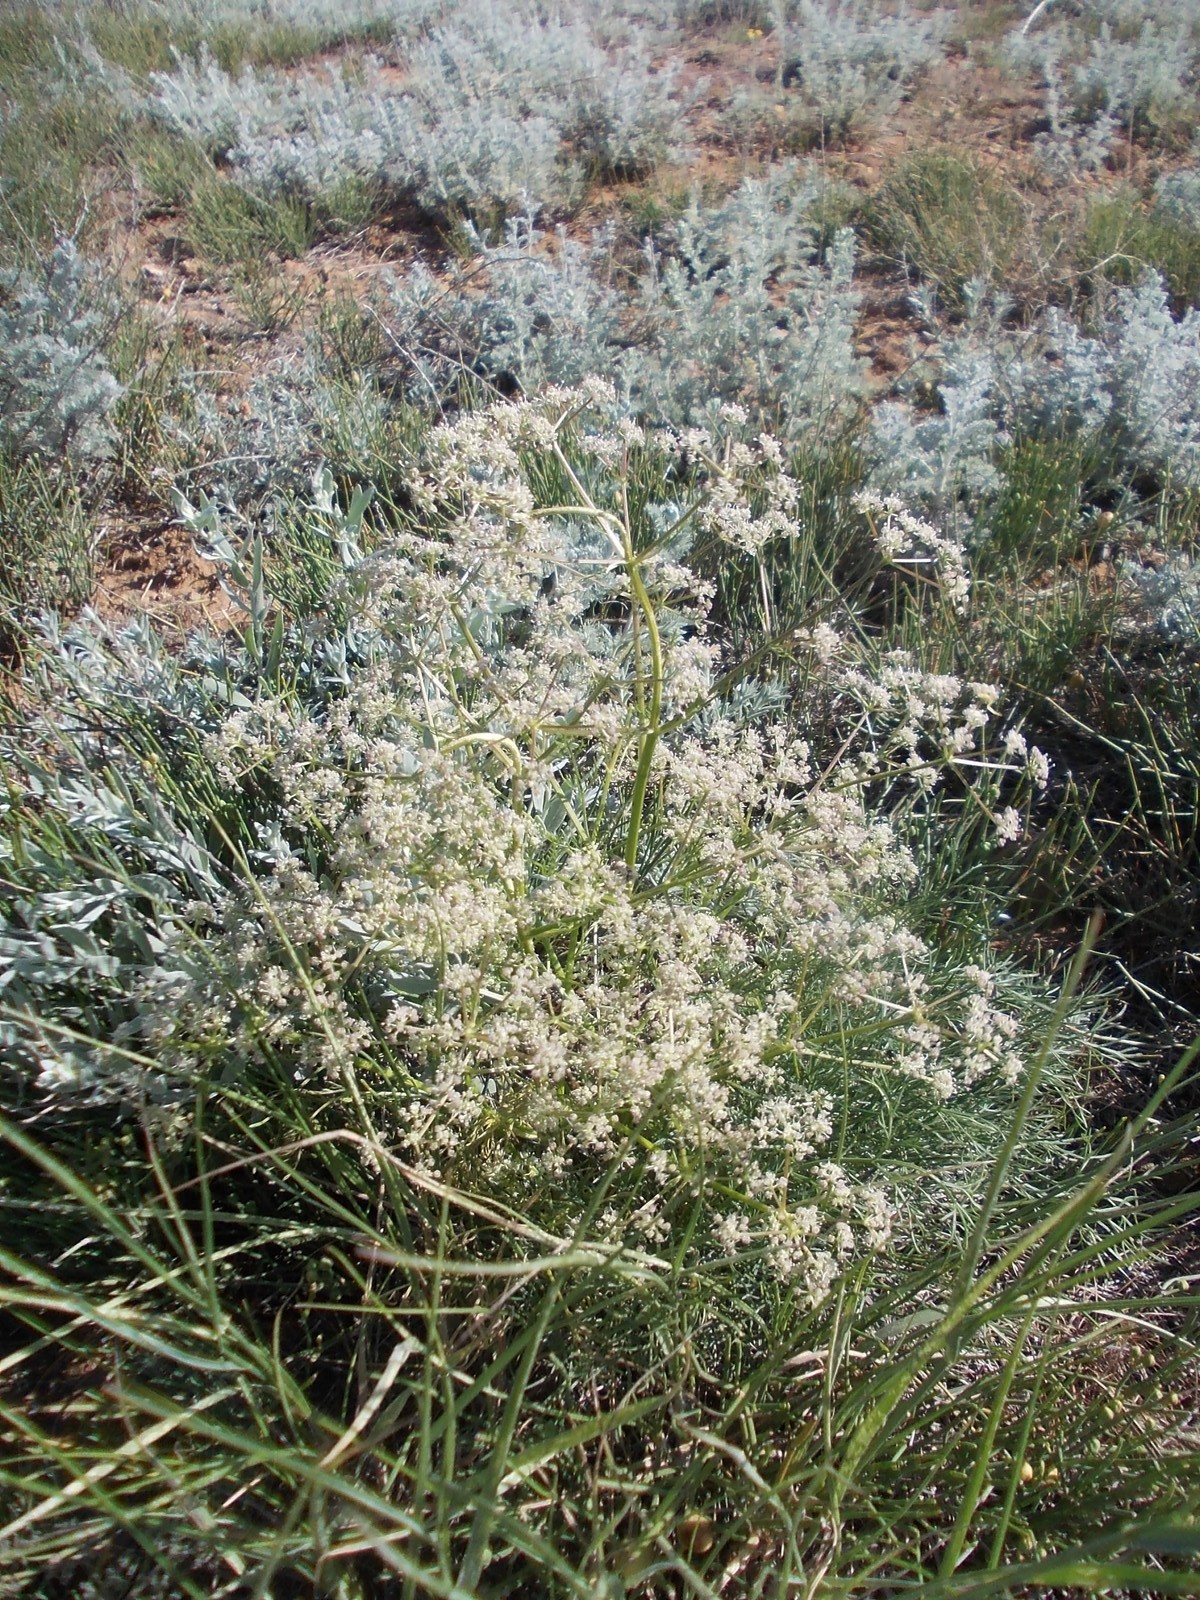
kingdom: Plantae
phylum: Tracheophyta
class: Magnoliopsida
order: Apiales
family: Apiaceae
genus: Trinia
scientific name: Trinia hispida
